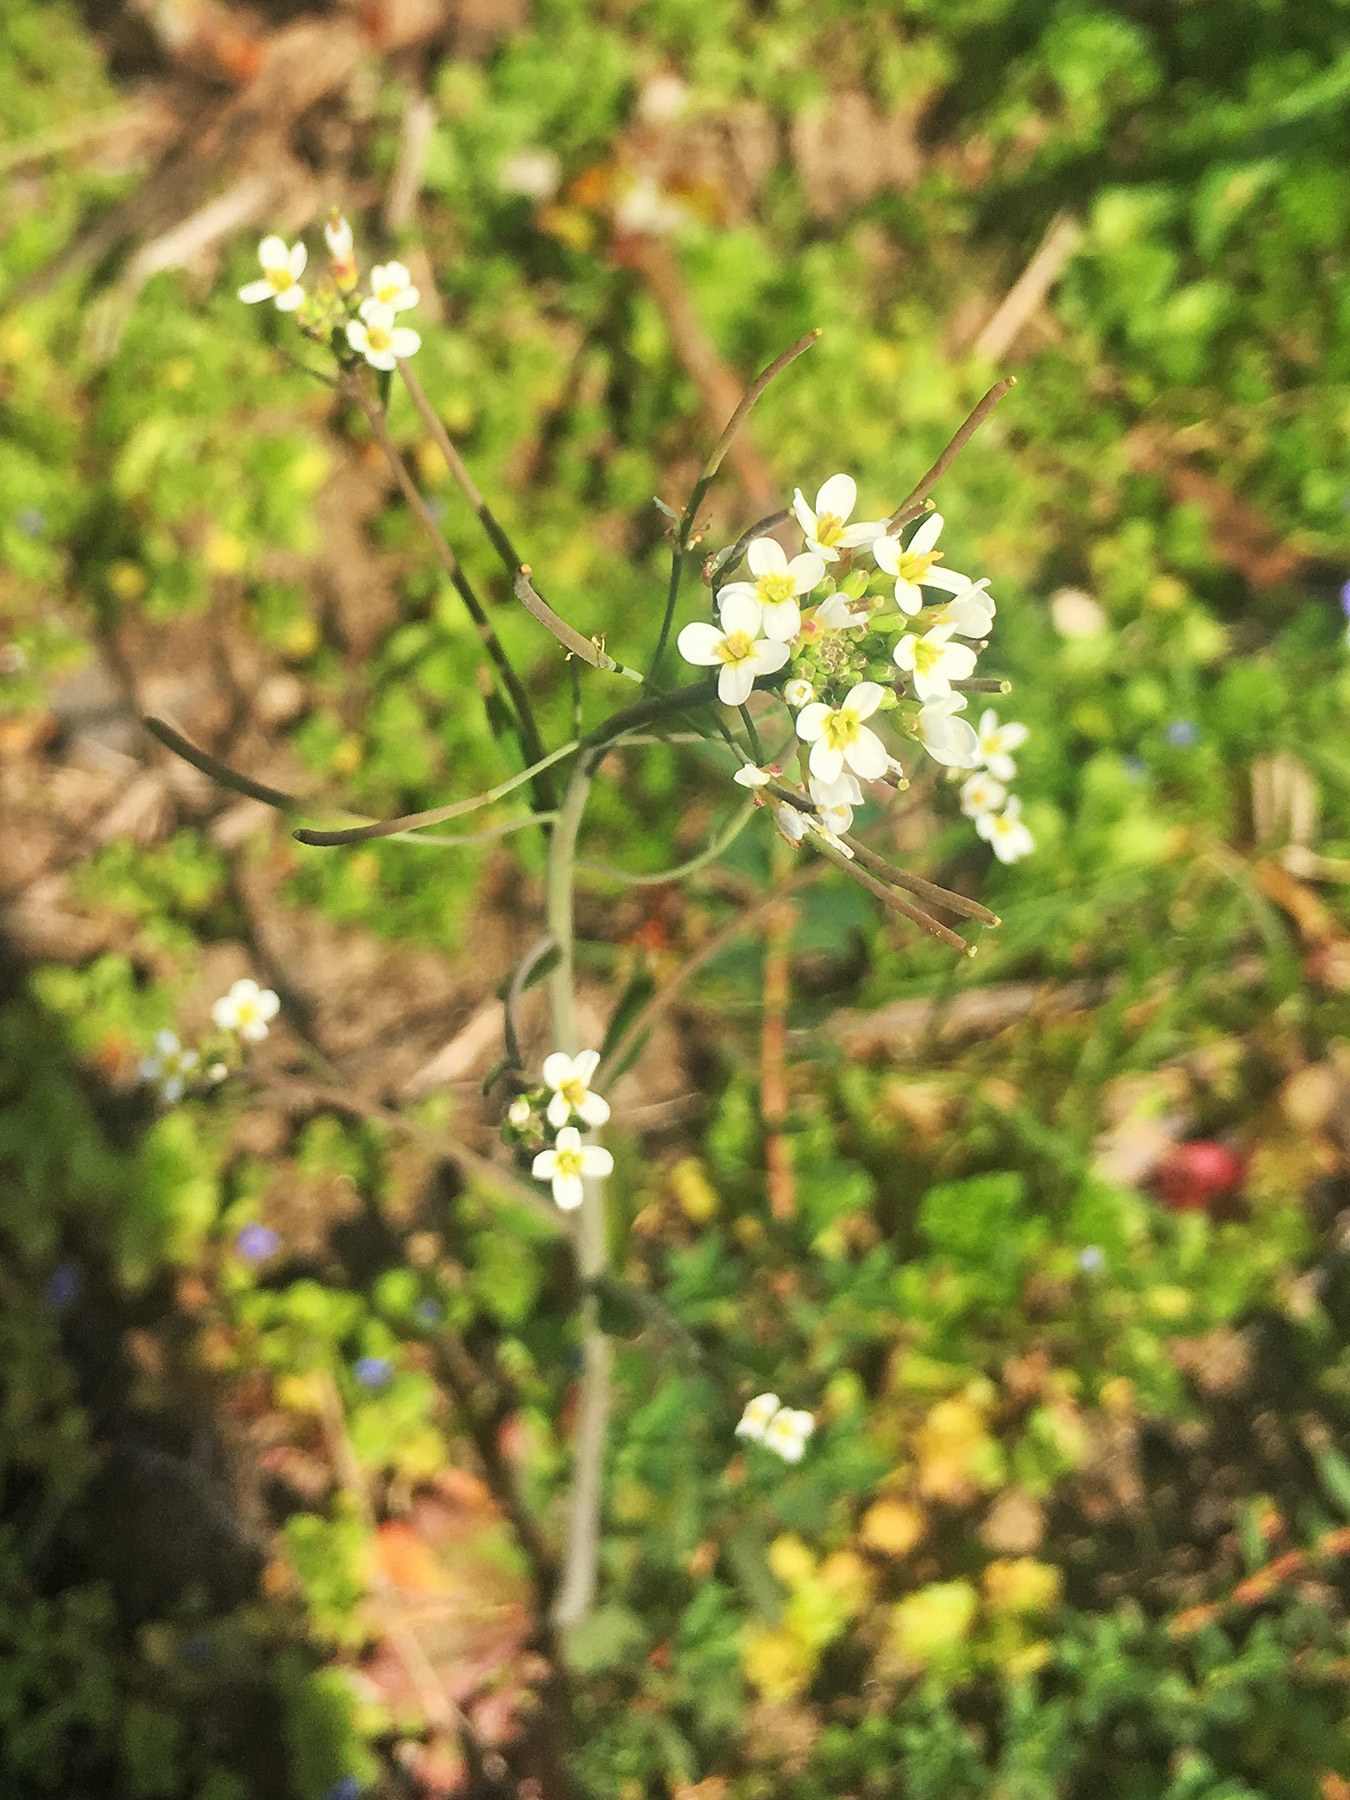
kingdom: Plantae
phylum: Tracheophyta
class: Magnoliopsida
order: Brassicales
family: Brassicaceae
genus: Cardamine
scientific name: Cardamine hirsuta
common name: Hairy bittercress
